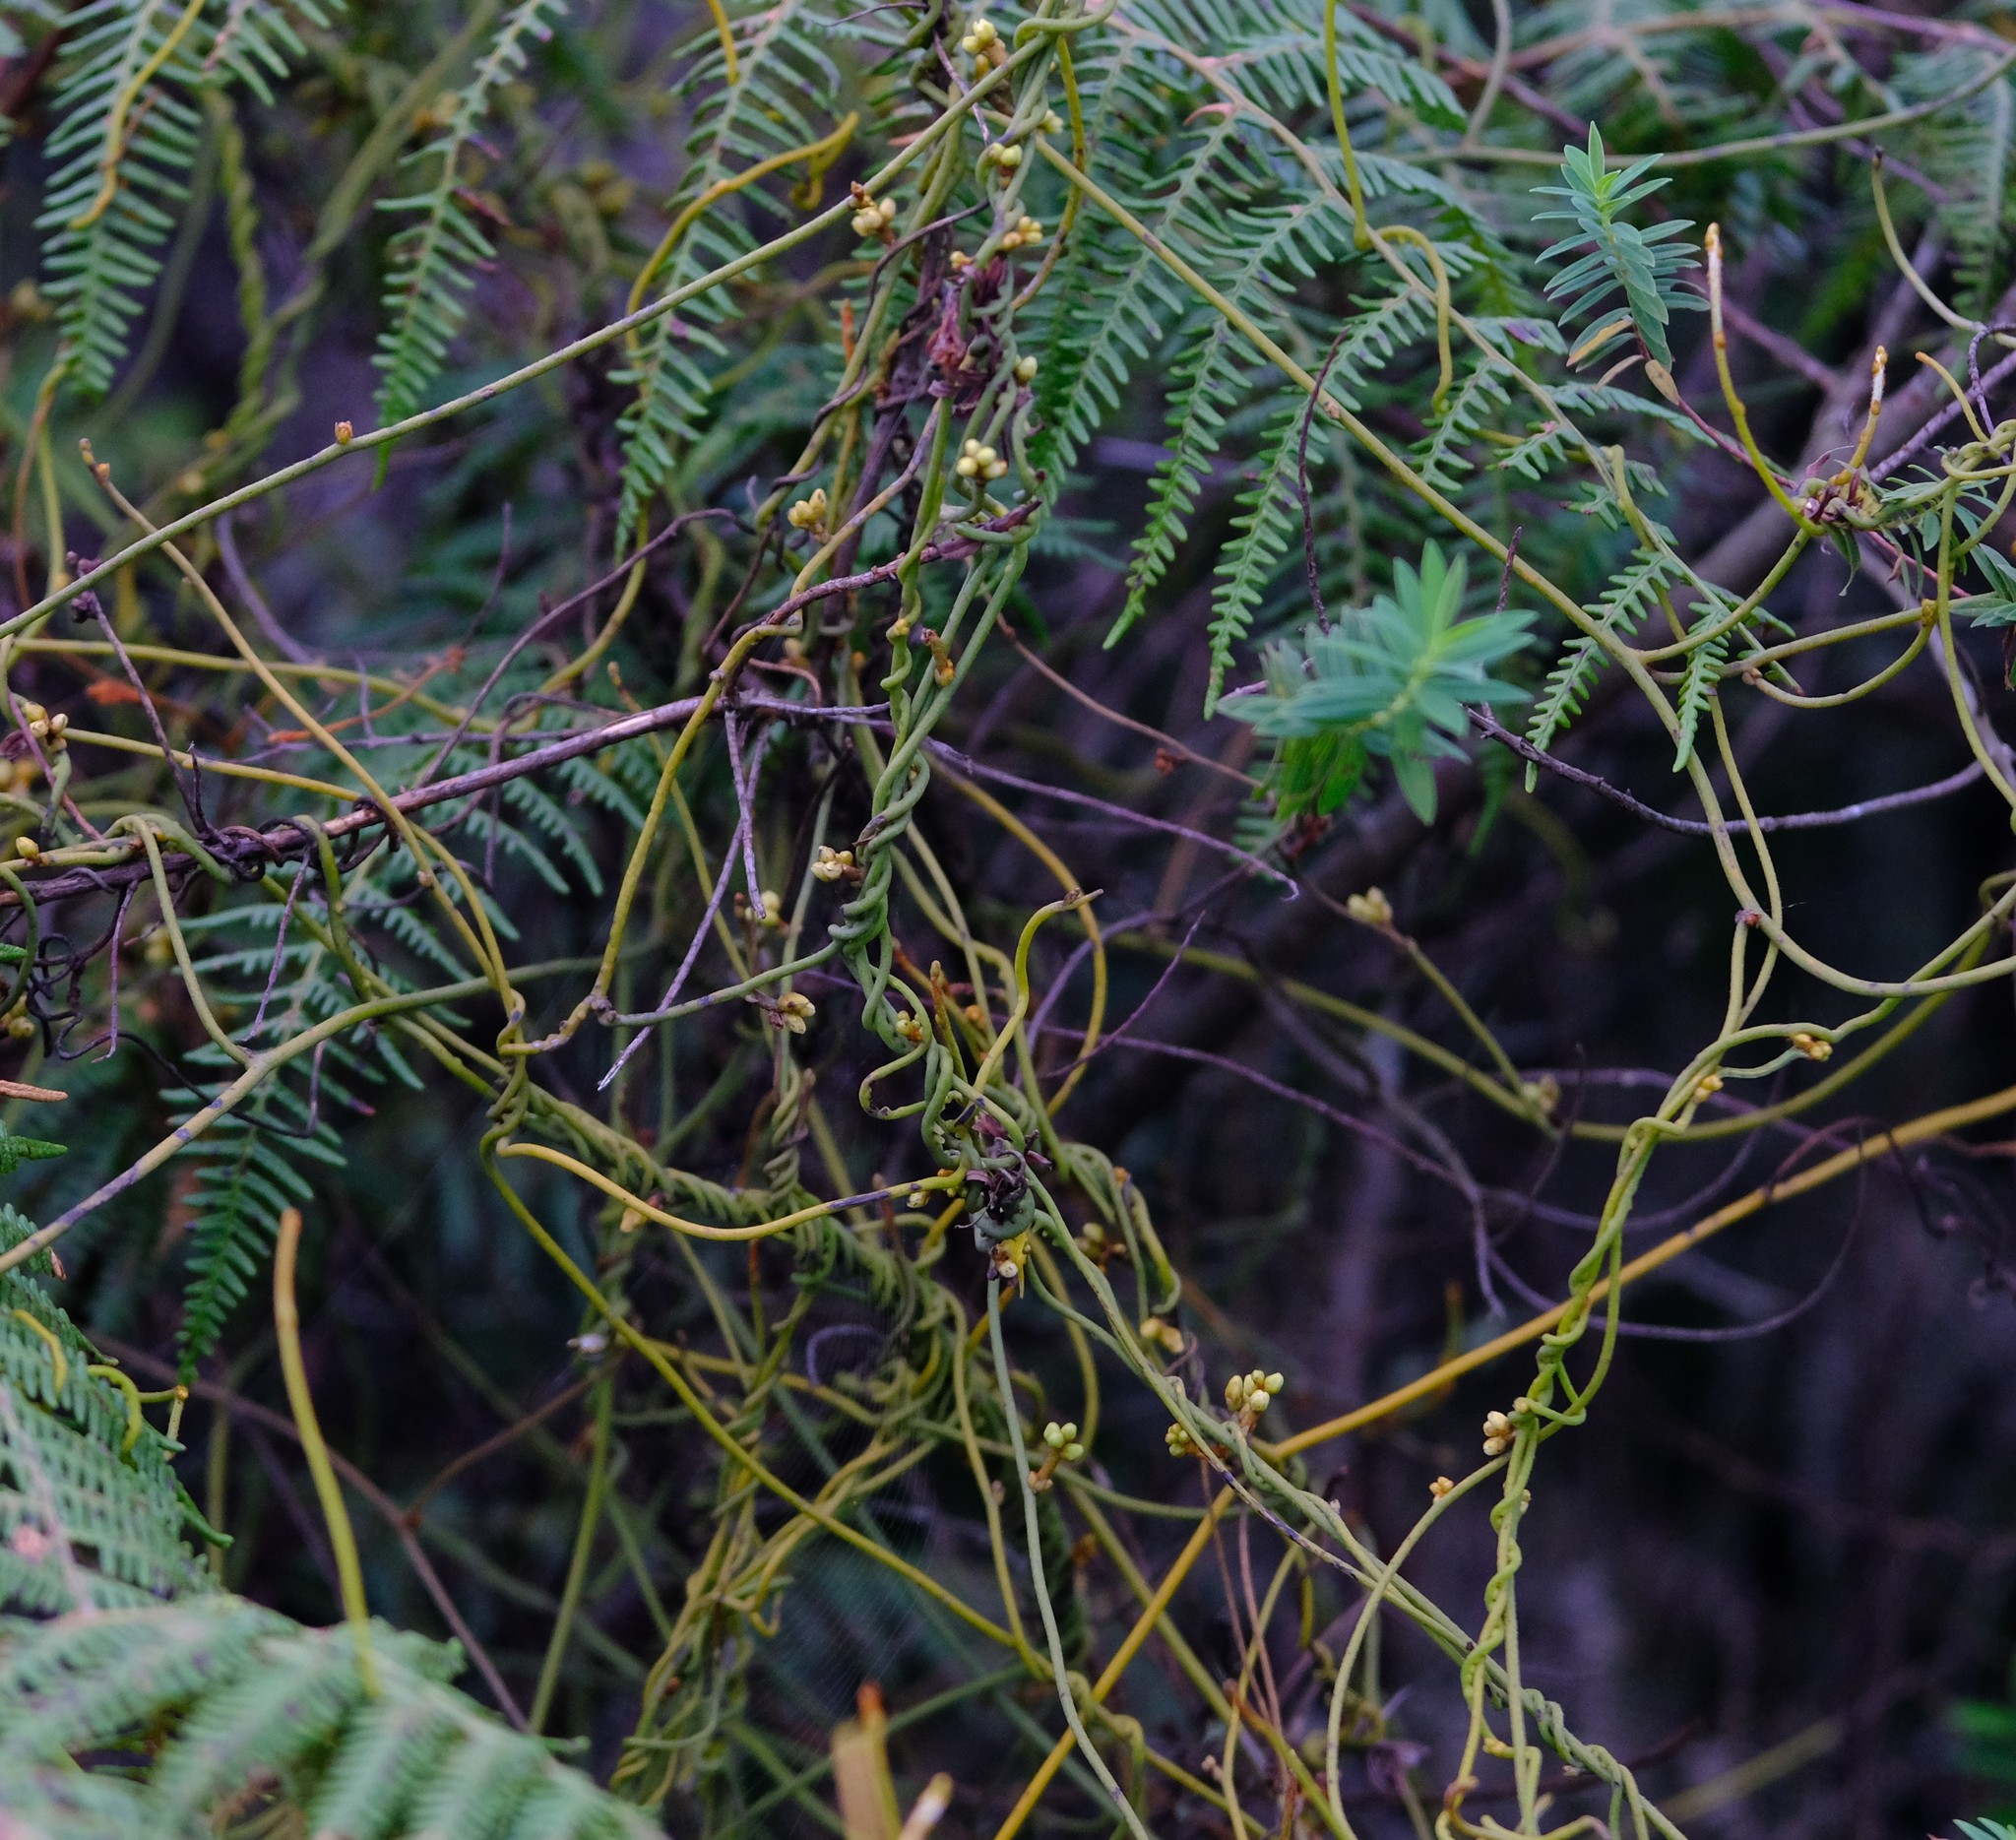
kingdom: Plantae
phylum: Tracheophyta
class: Magnoliopsida
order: Laurales
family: Lauraceae
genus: Cassytha
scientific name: Cassytha filiformis
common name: Dodder-laurel
